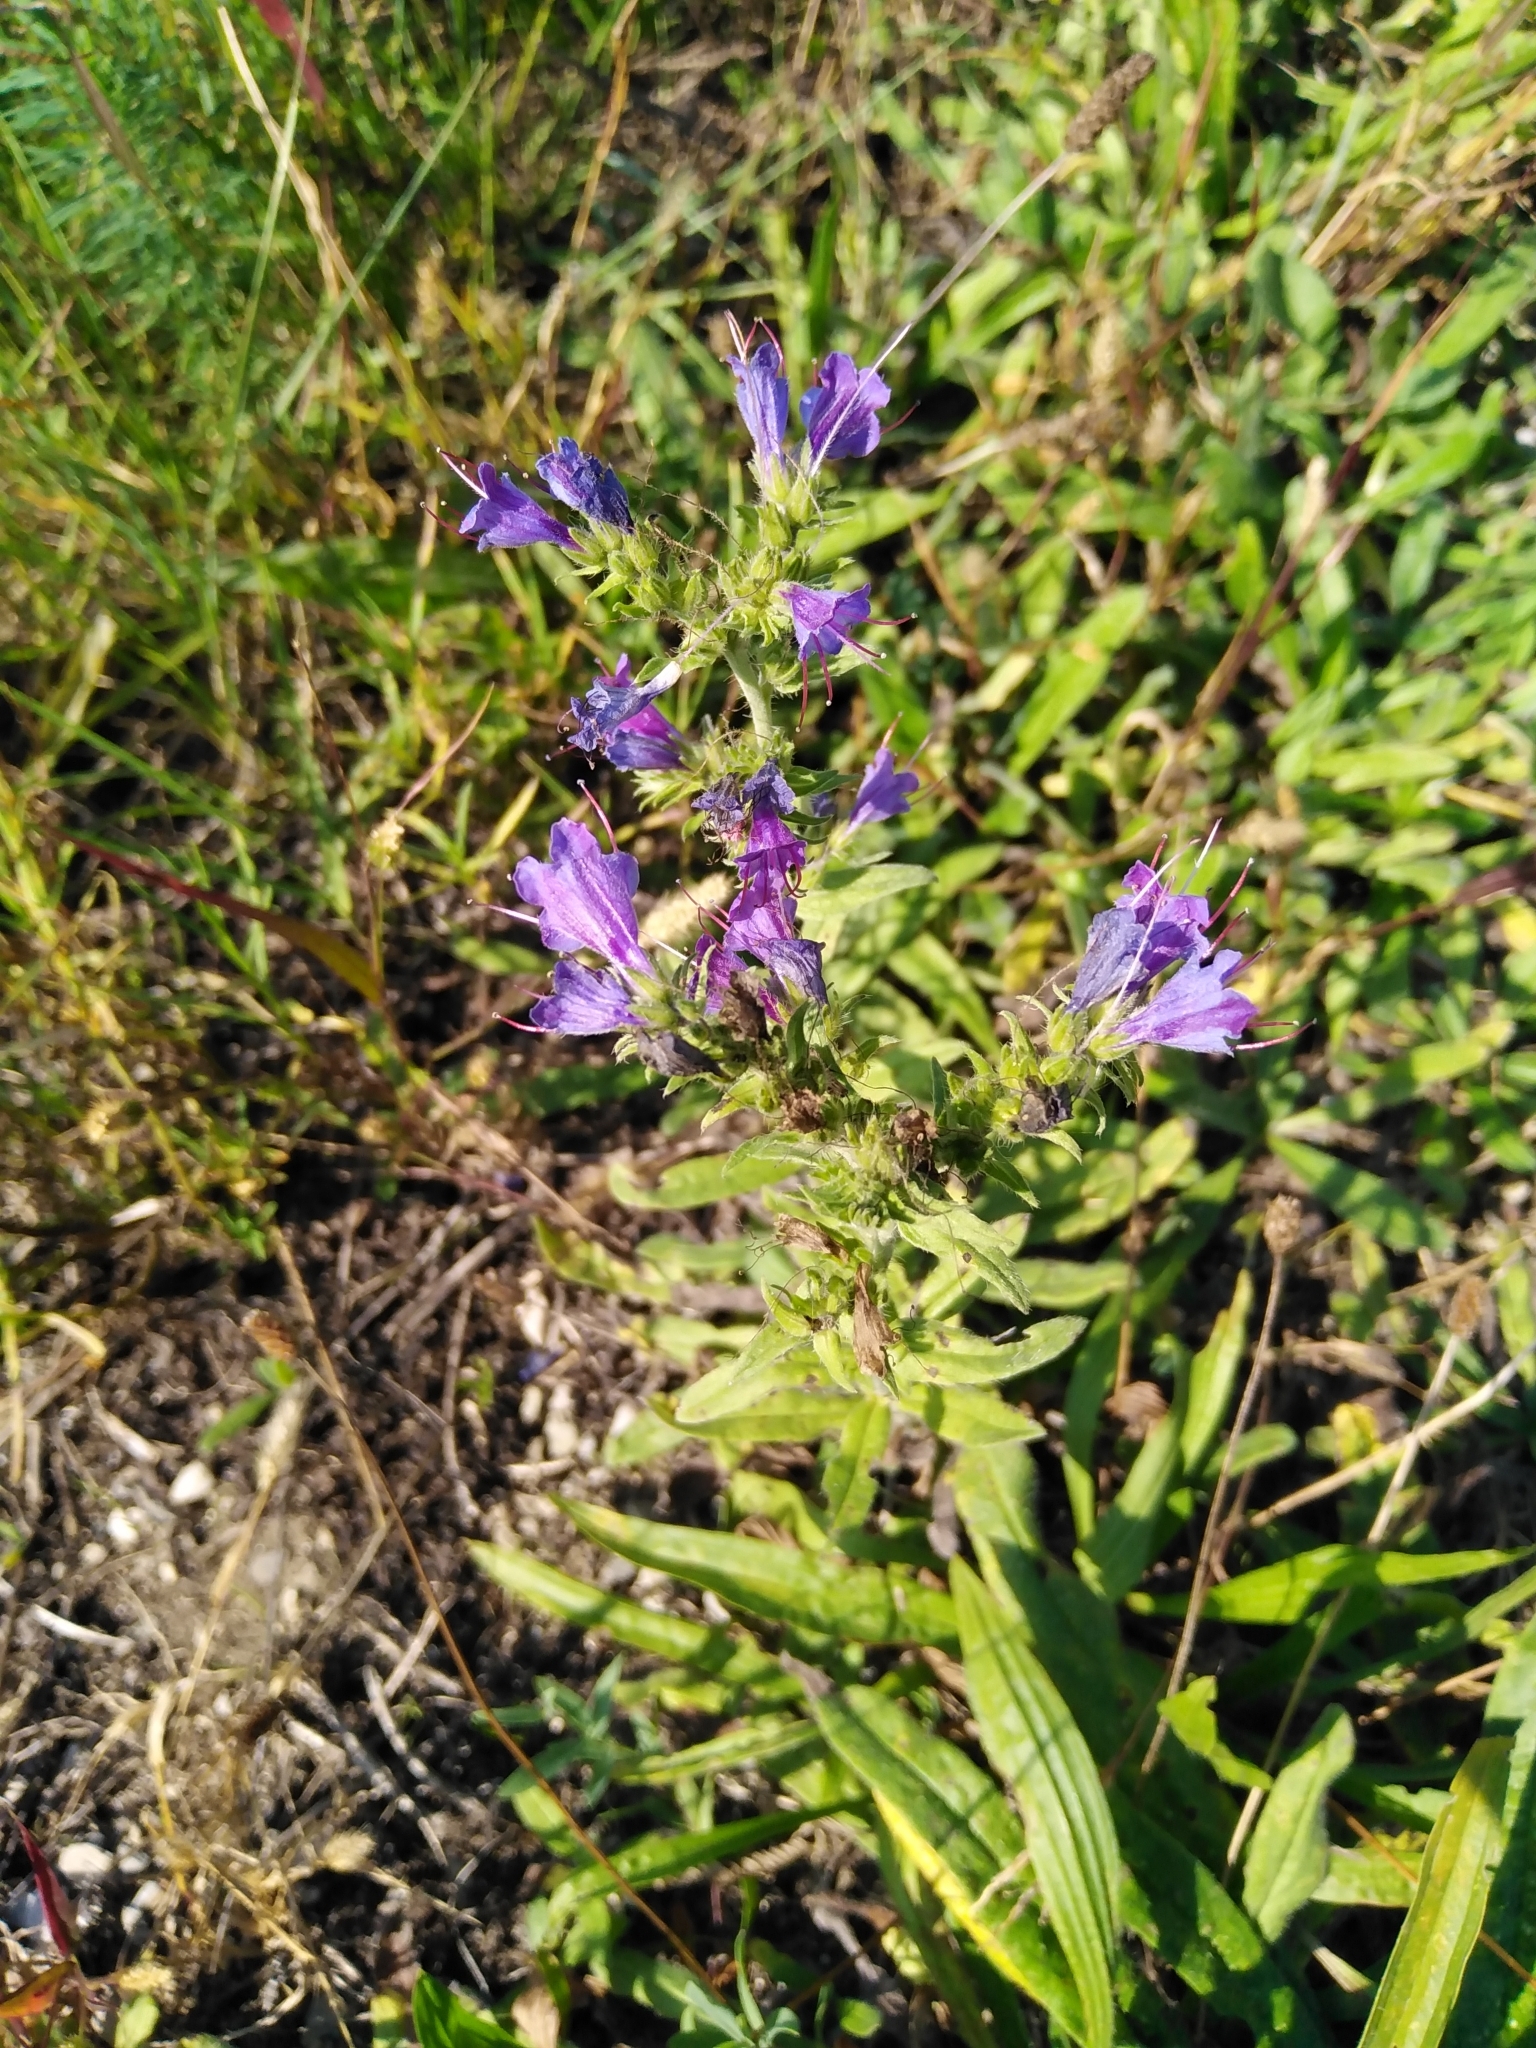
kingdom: Plantae
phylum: Tracheophyta
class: Magnoliopsida
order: Boraginales
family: Boraginaceae
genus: Echium
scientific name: Echium vulgare
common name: Common viper's bugloss
